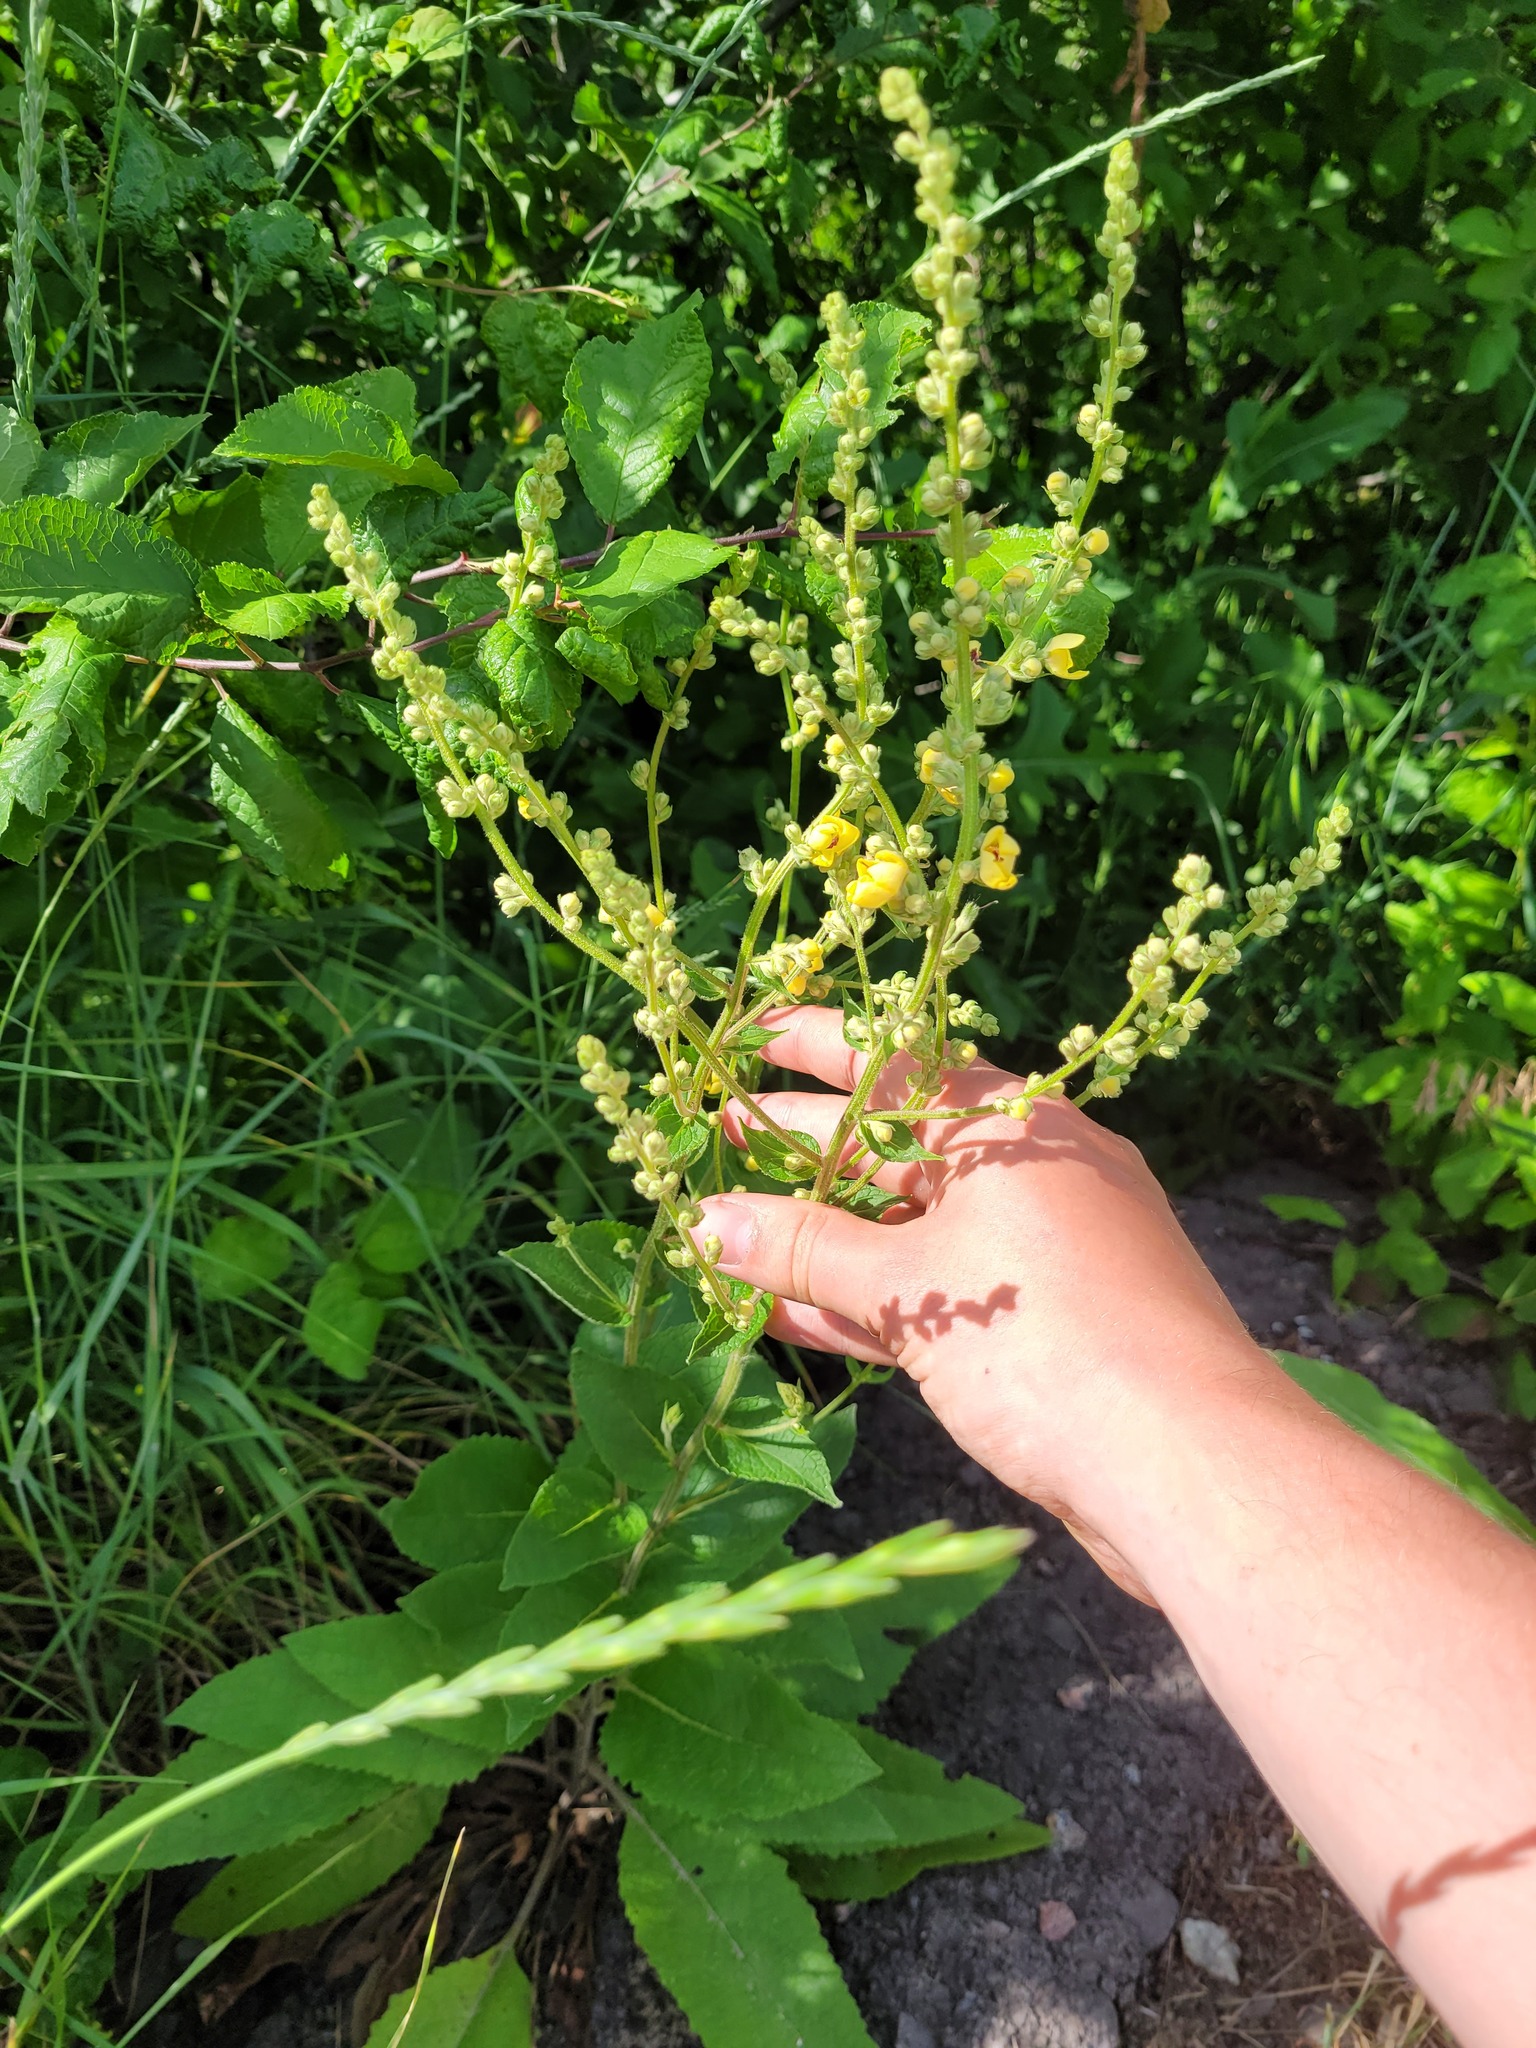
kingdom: Plantae
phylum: Tracheophyta
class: Magnoliopsida
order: Lamiales
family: Scrophulariaceae
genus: Verbascum
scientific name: Verbascum chaixii
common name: Nettle-leaved mullein
